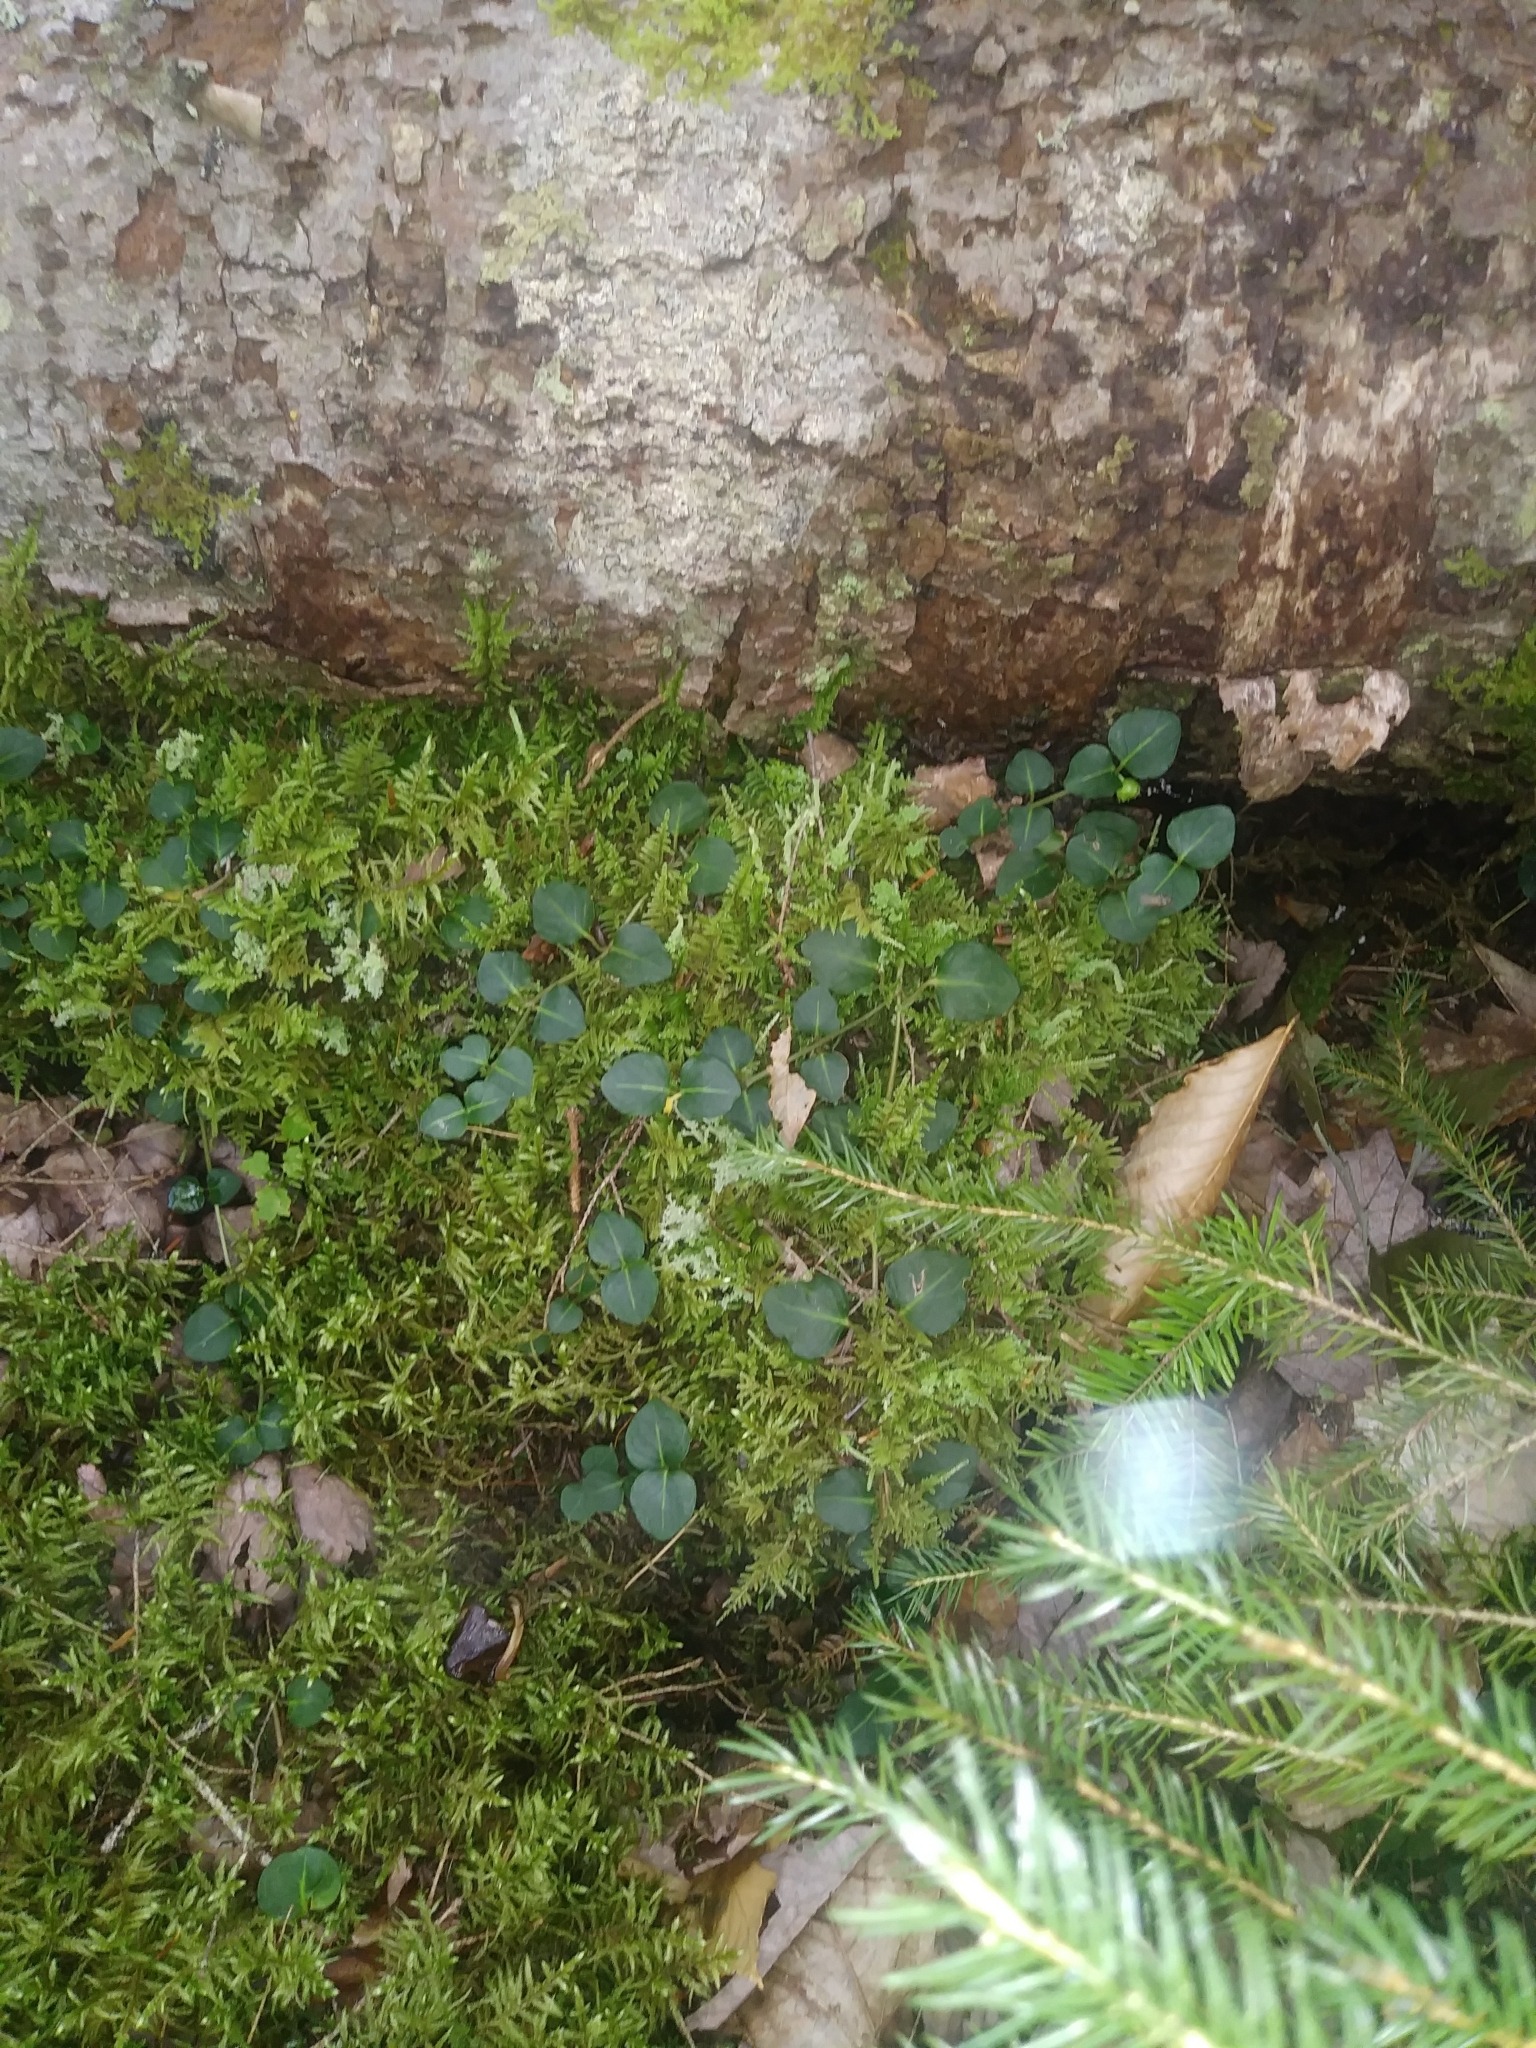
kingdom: Plantae
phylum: Tracheophyta
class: Magnoliopsida
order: Gentianales
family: Rubiaceae
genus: Mitchella
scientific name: Mitchella repens
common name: Partridge-berry
